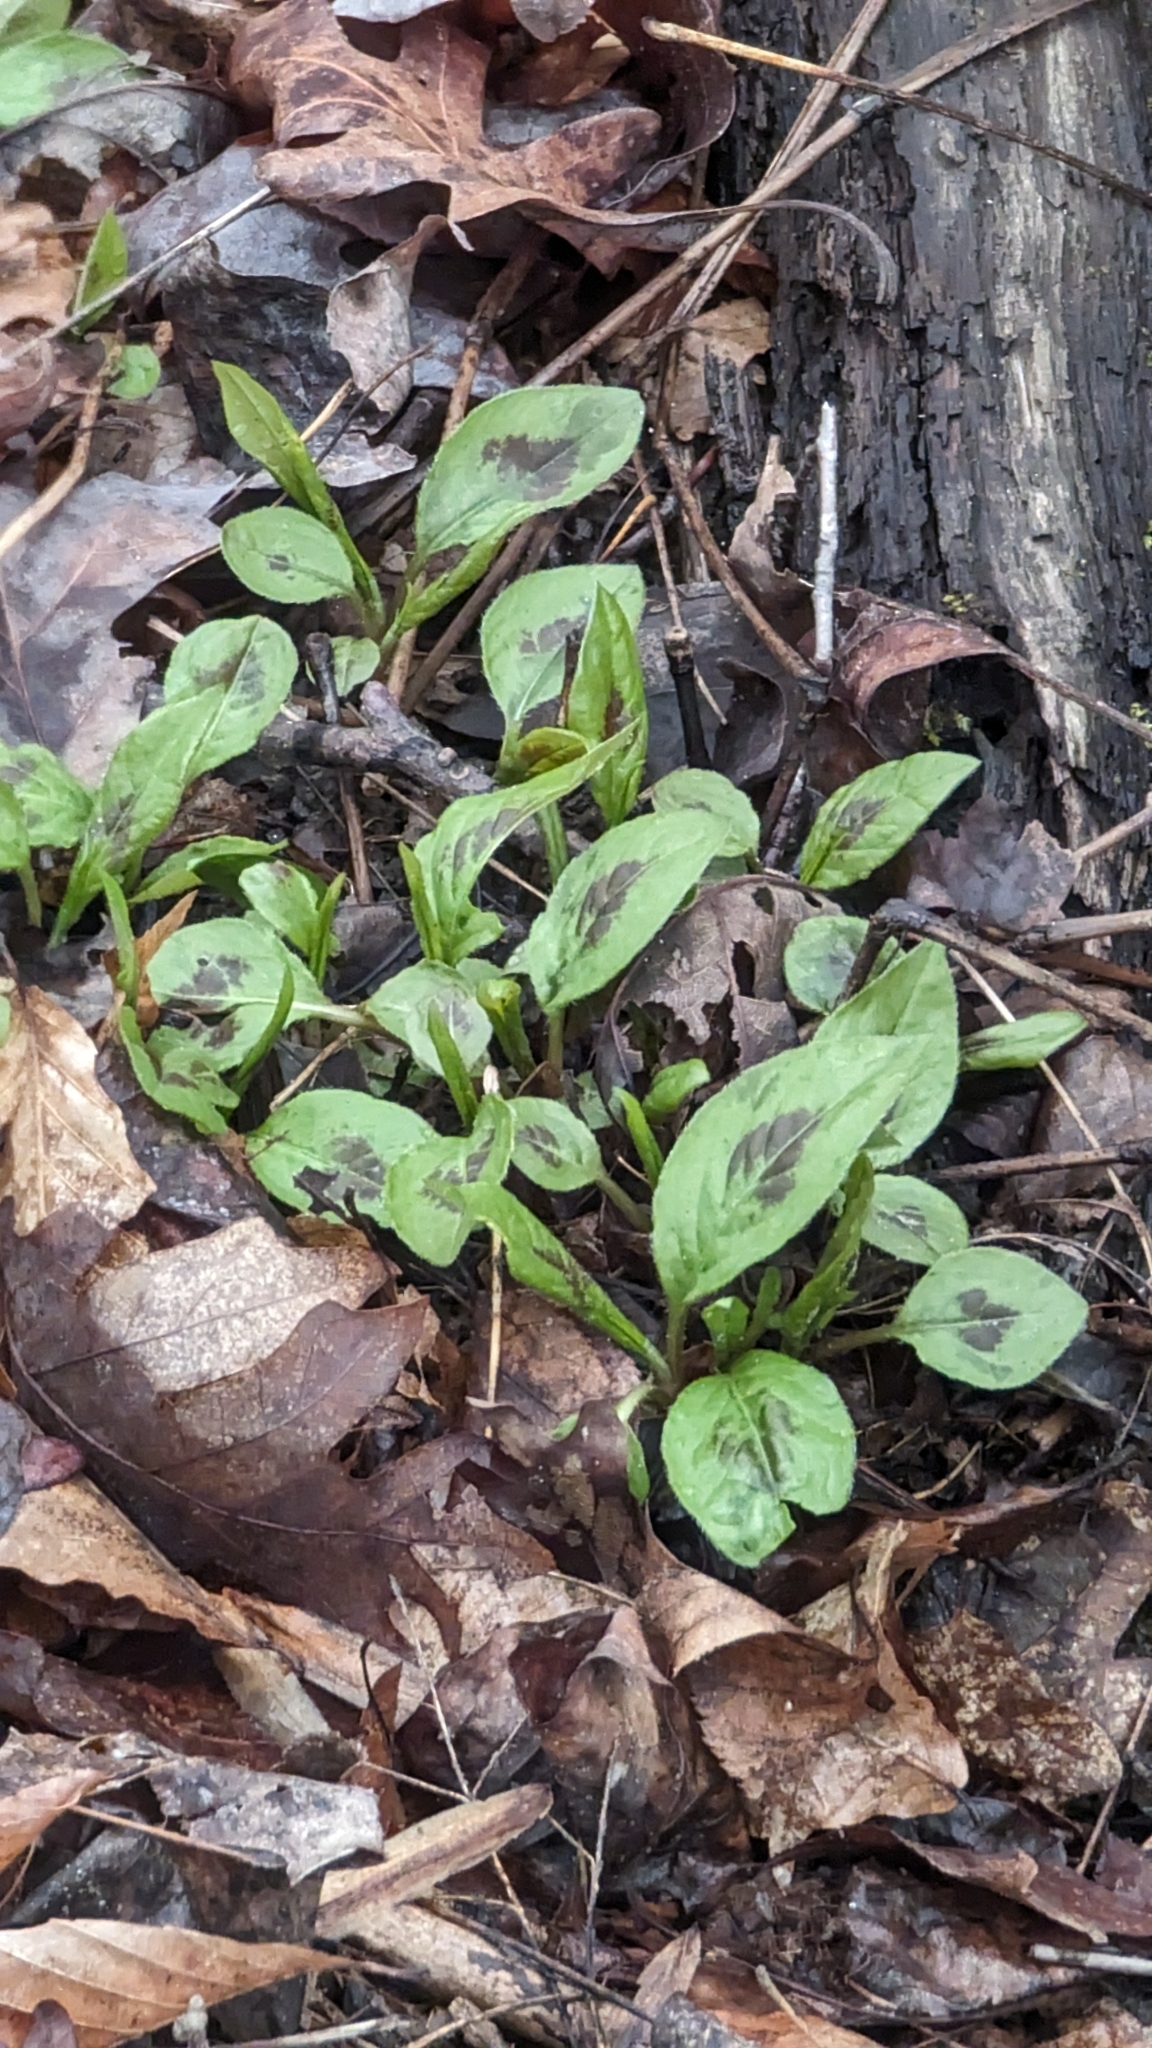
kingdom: Plantae
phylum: Tracheophyta
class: Magnoliopsida
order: Caryophyllales
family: Polygonaceae
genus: Persicaria
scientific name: Persicaria virginiana
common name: Jumpseed
